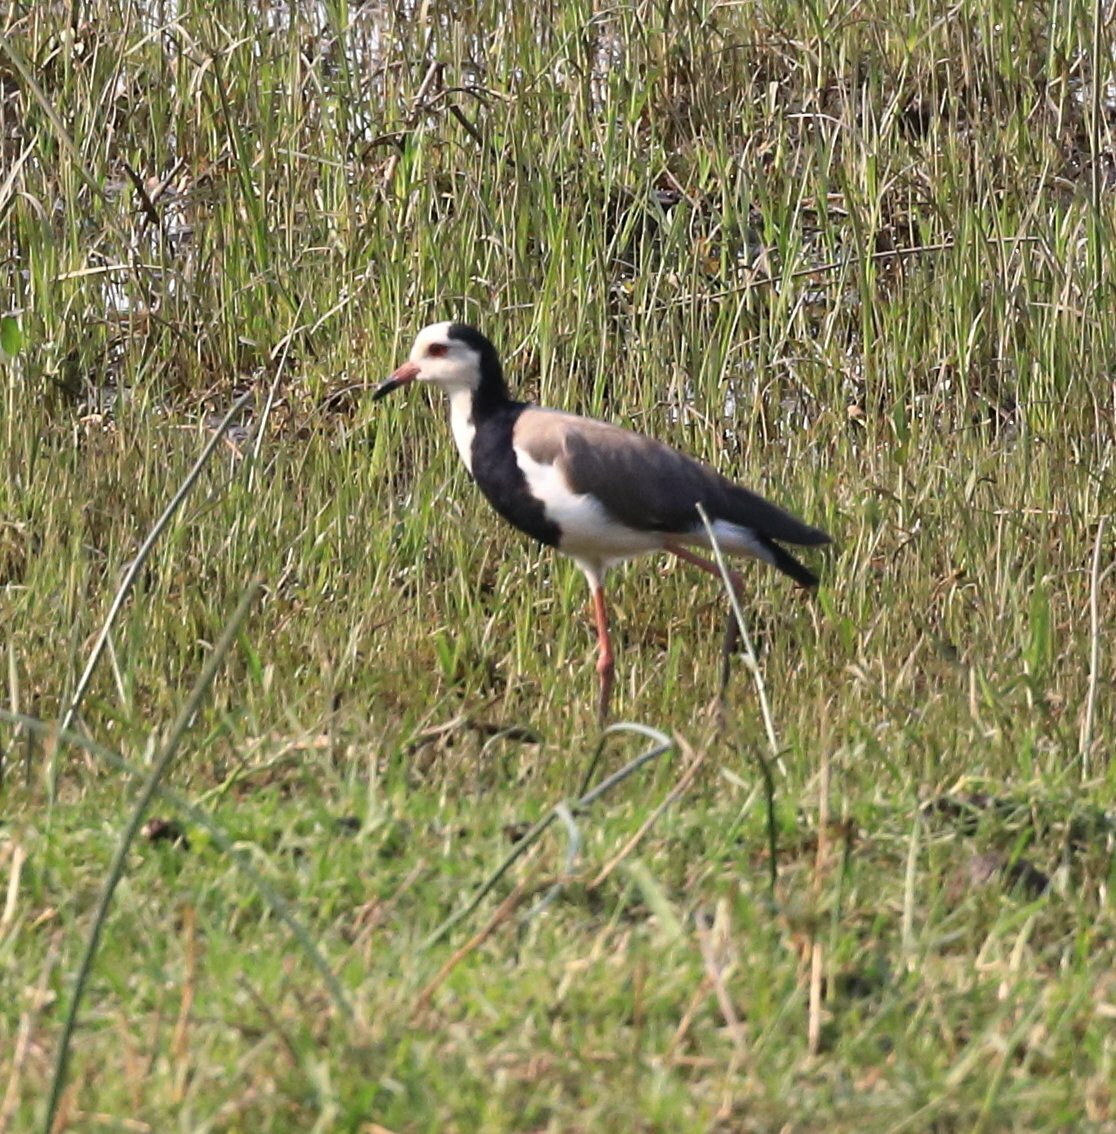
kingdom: Animalia
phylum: Chordata
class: Aves
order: Charadriiformes
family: Charadriidae
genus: Vanellus
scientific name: Vanellus crassirostris
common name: Long-toed lapwing
